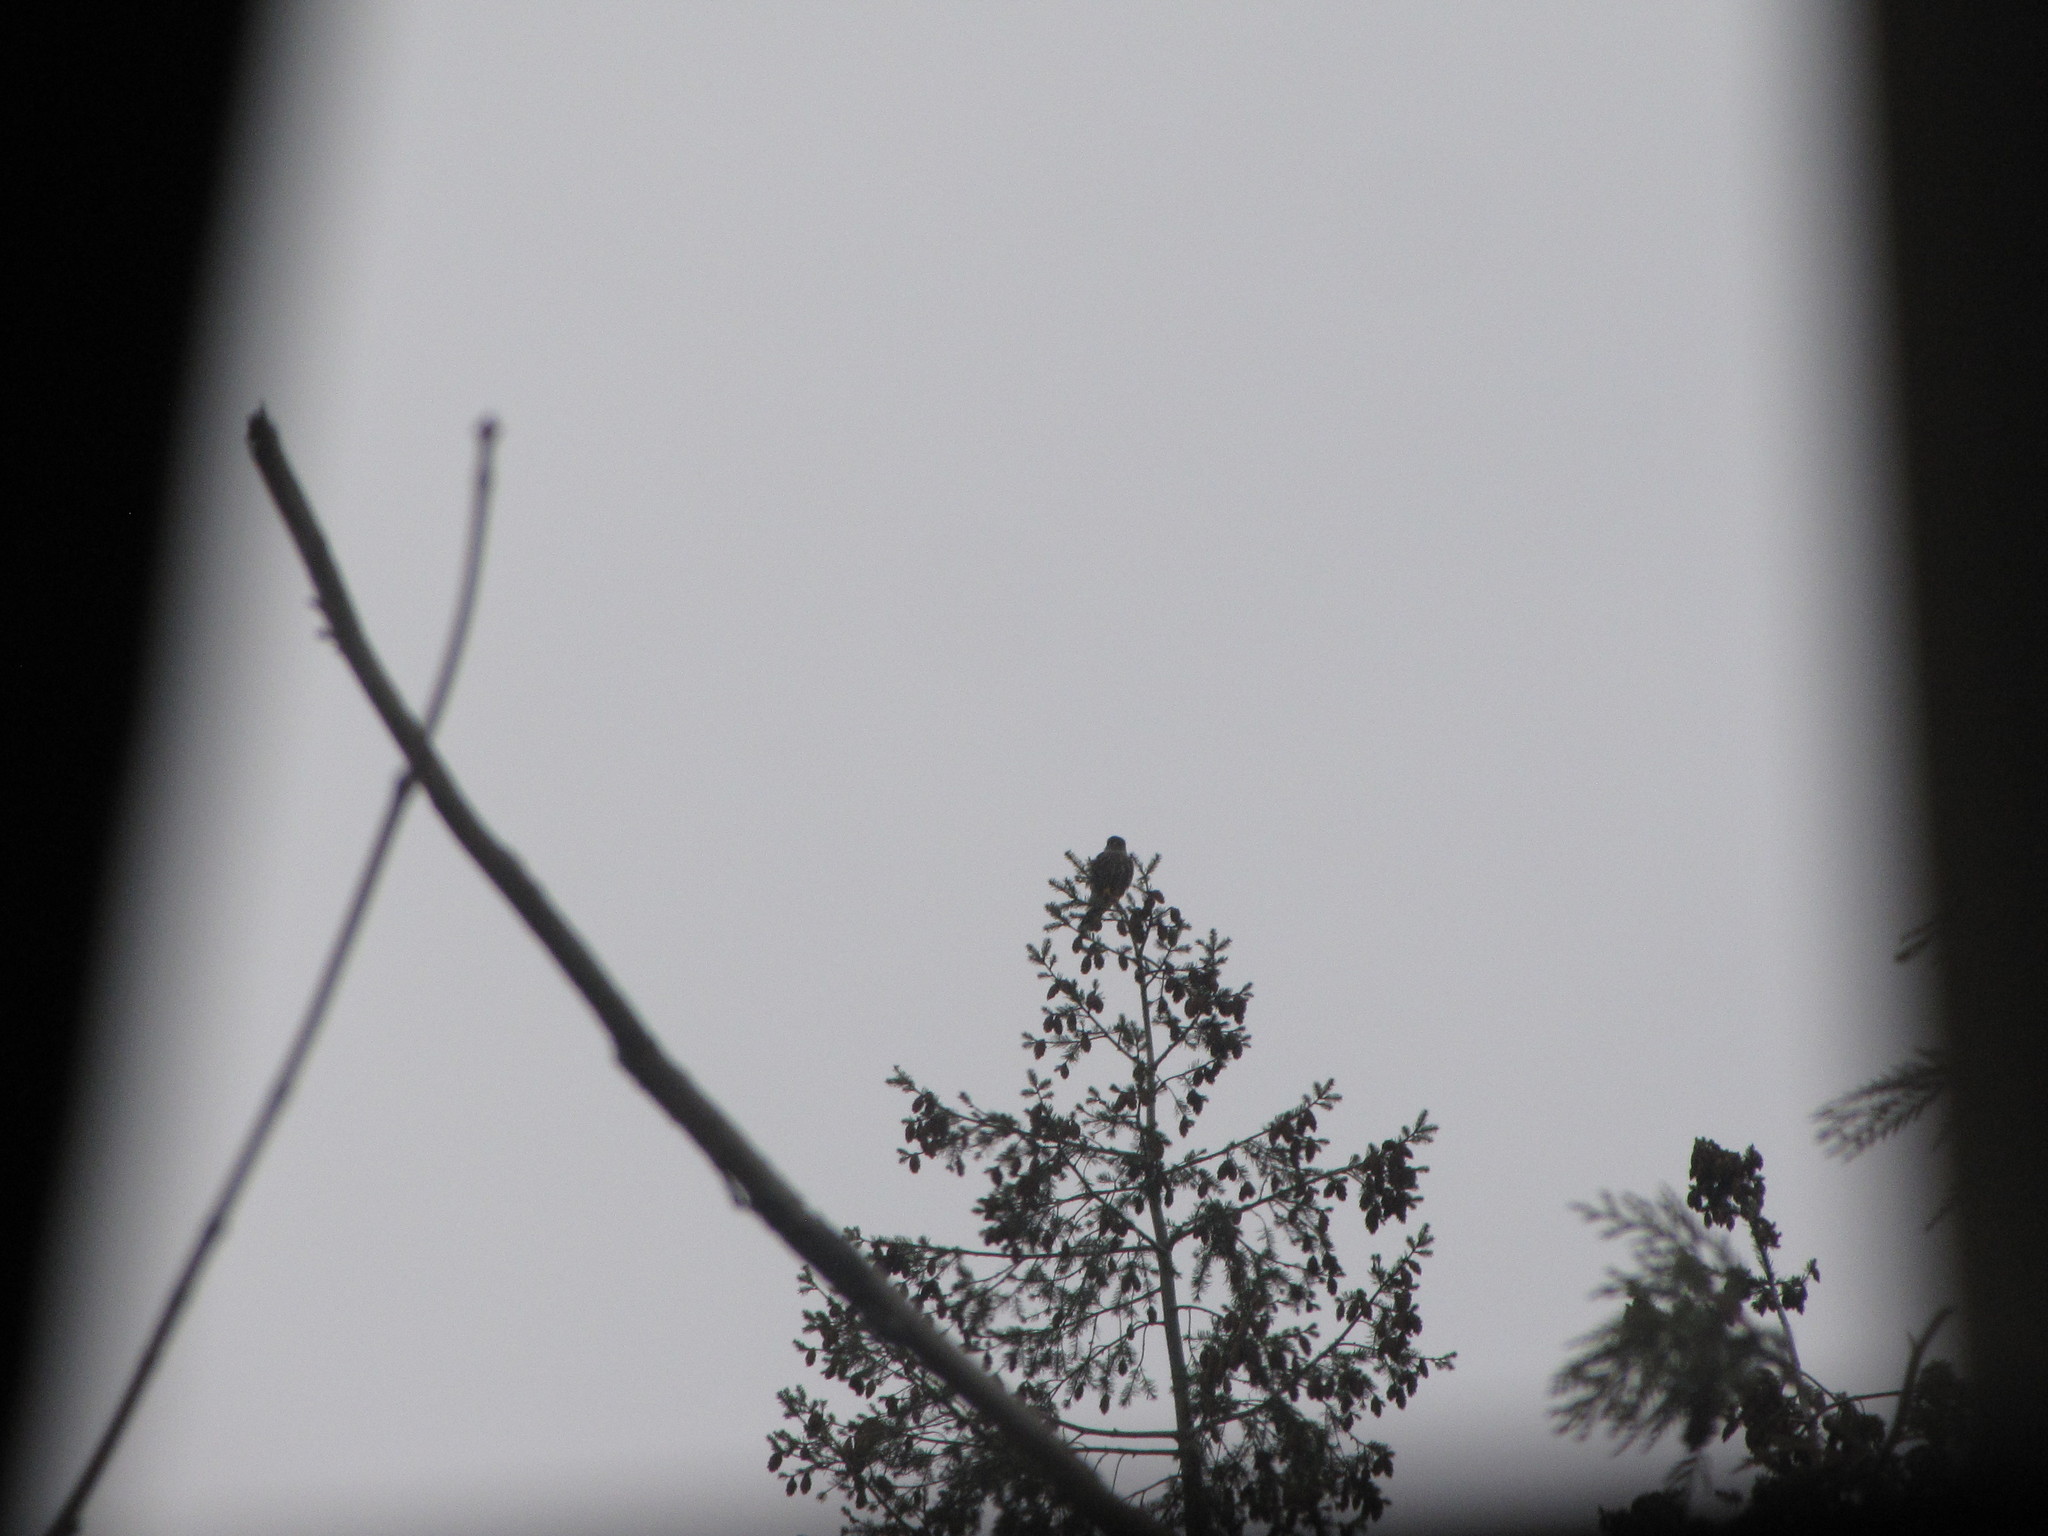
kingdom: Animalia
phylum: Chordata
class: Aves
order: Falconiformes
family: Falconidae
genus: Falco
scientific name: Falco columbarius
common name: Merlin
